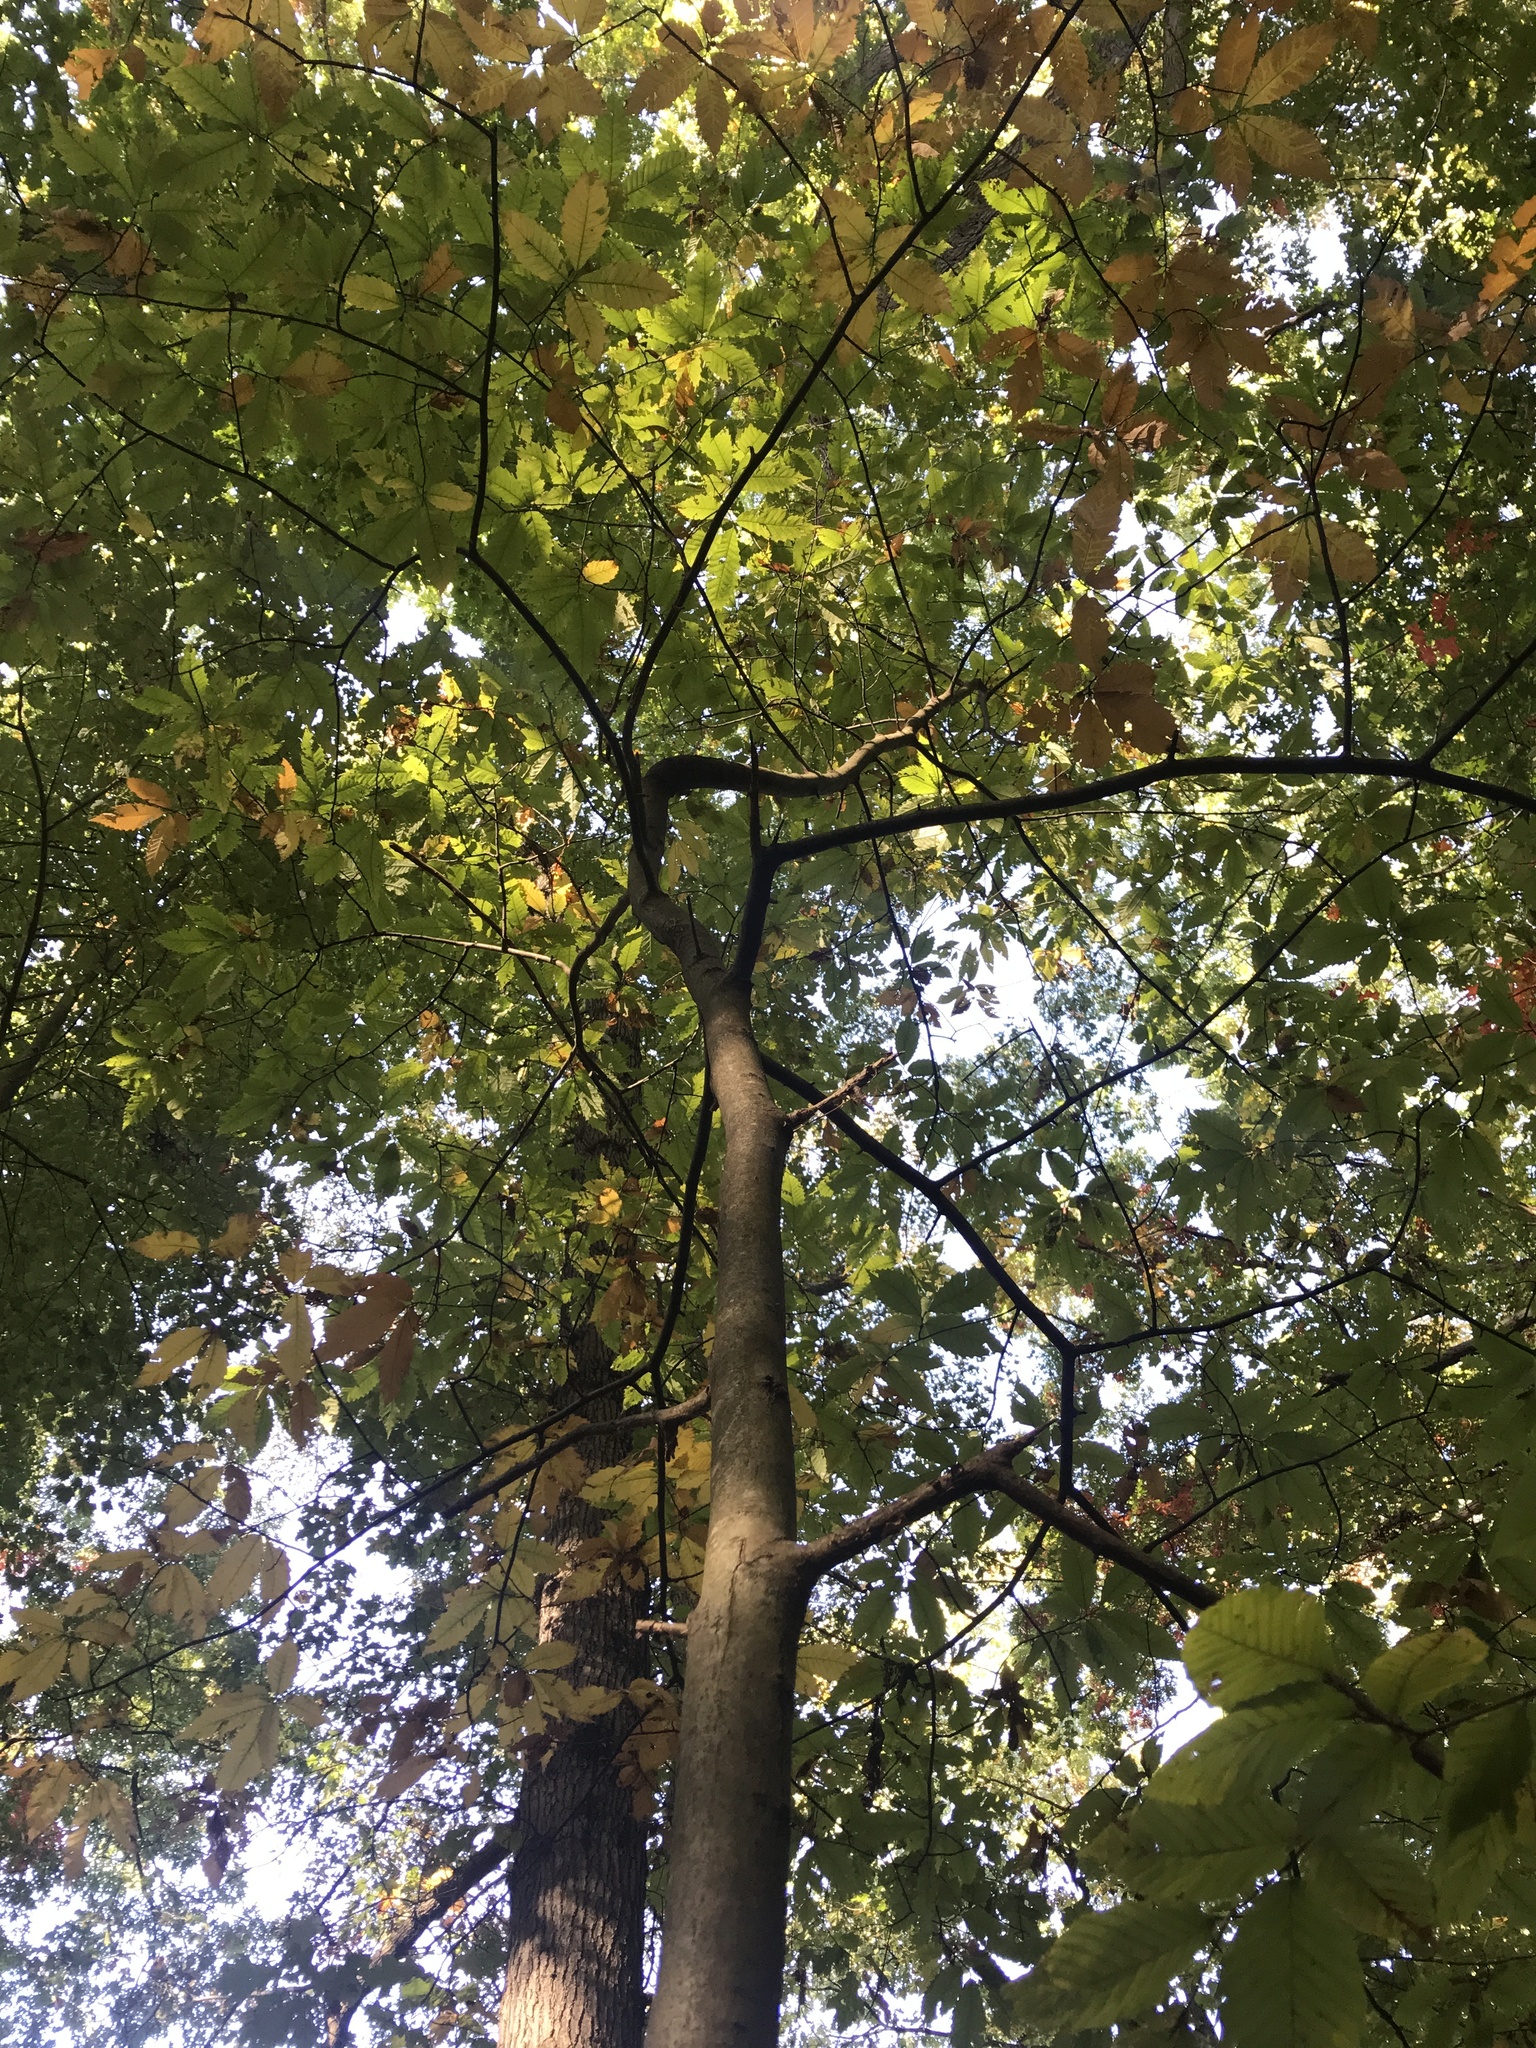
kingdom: Plantae
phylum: Tracheophyta
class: Magnoliopsida
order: Fagales
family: Fagaceae
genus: Castanea
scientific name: Castanea dentata
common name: American chestnut
